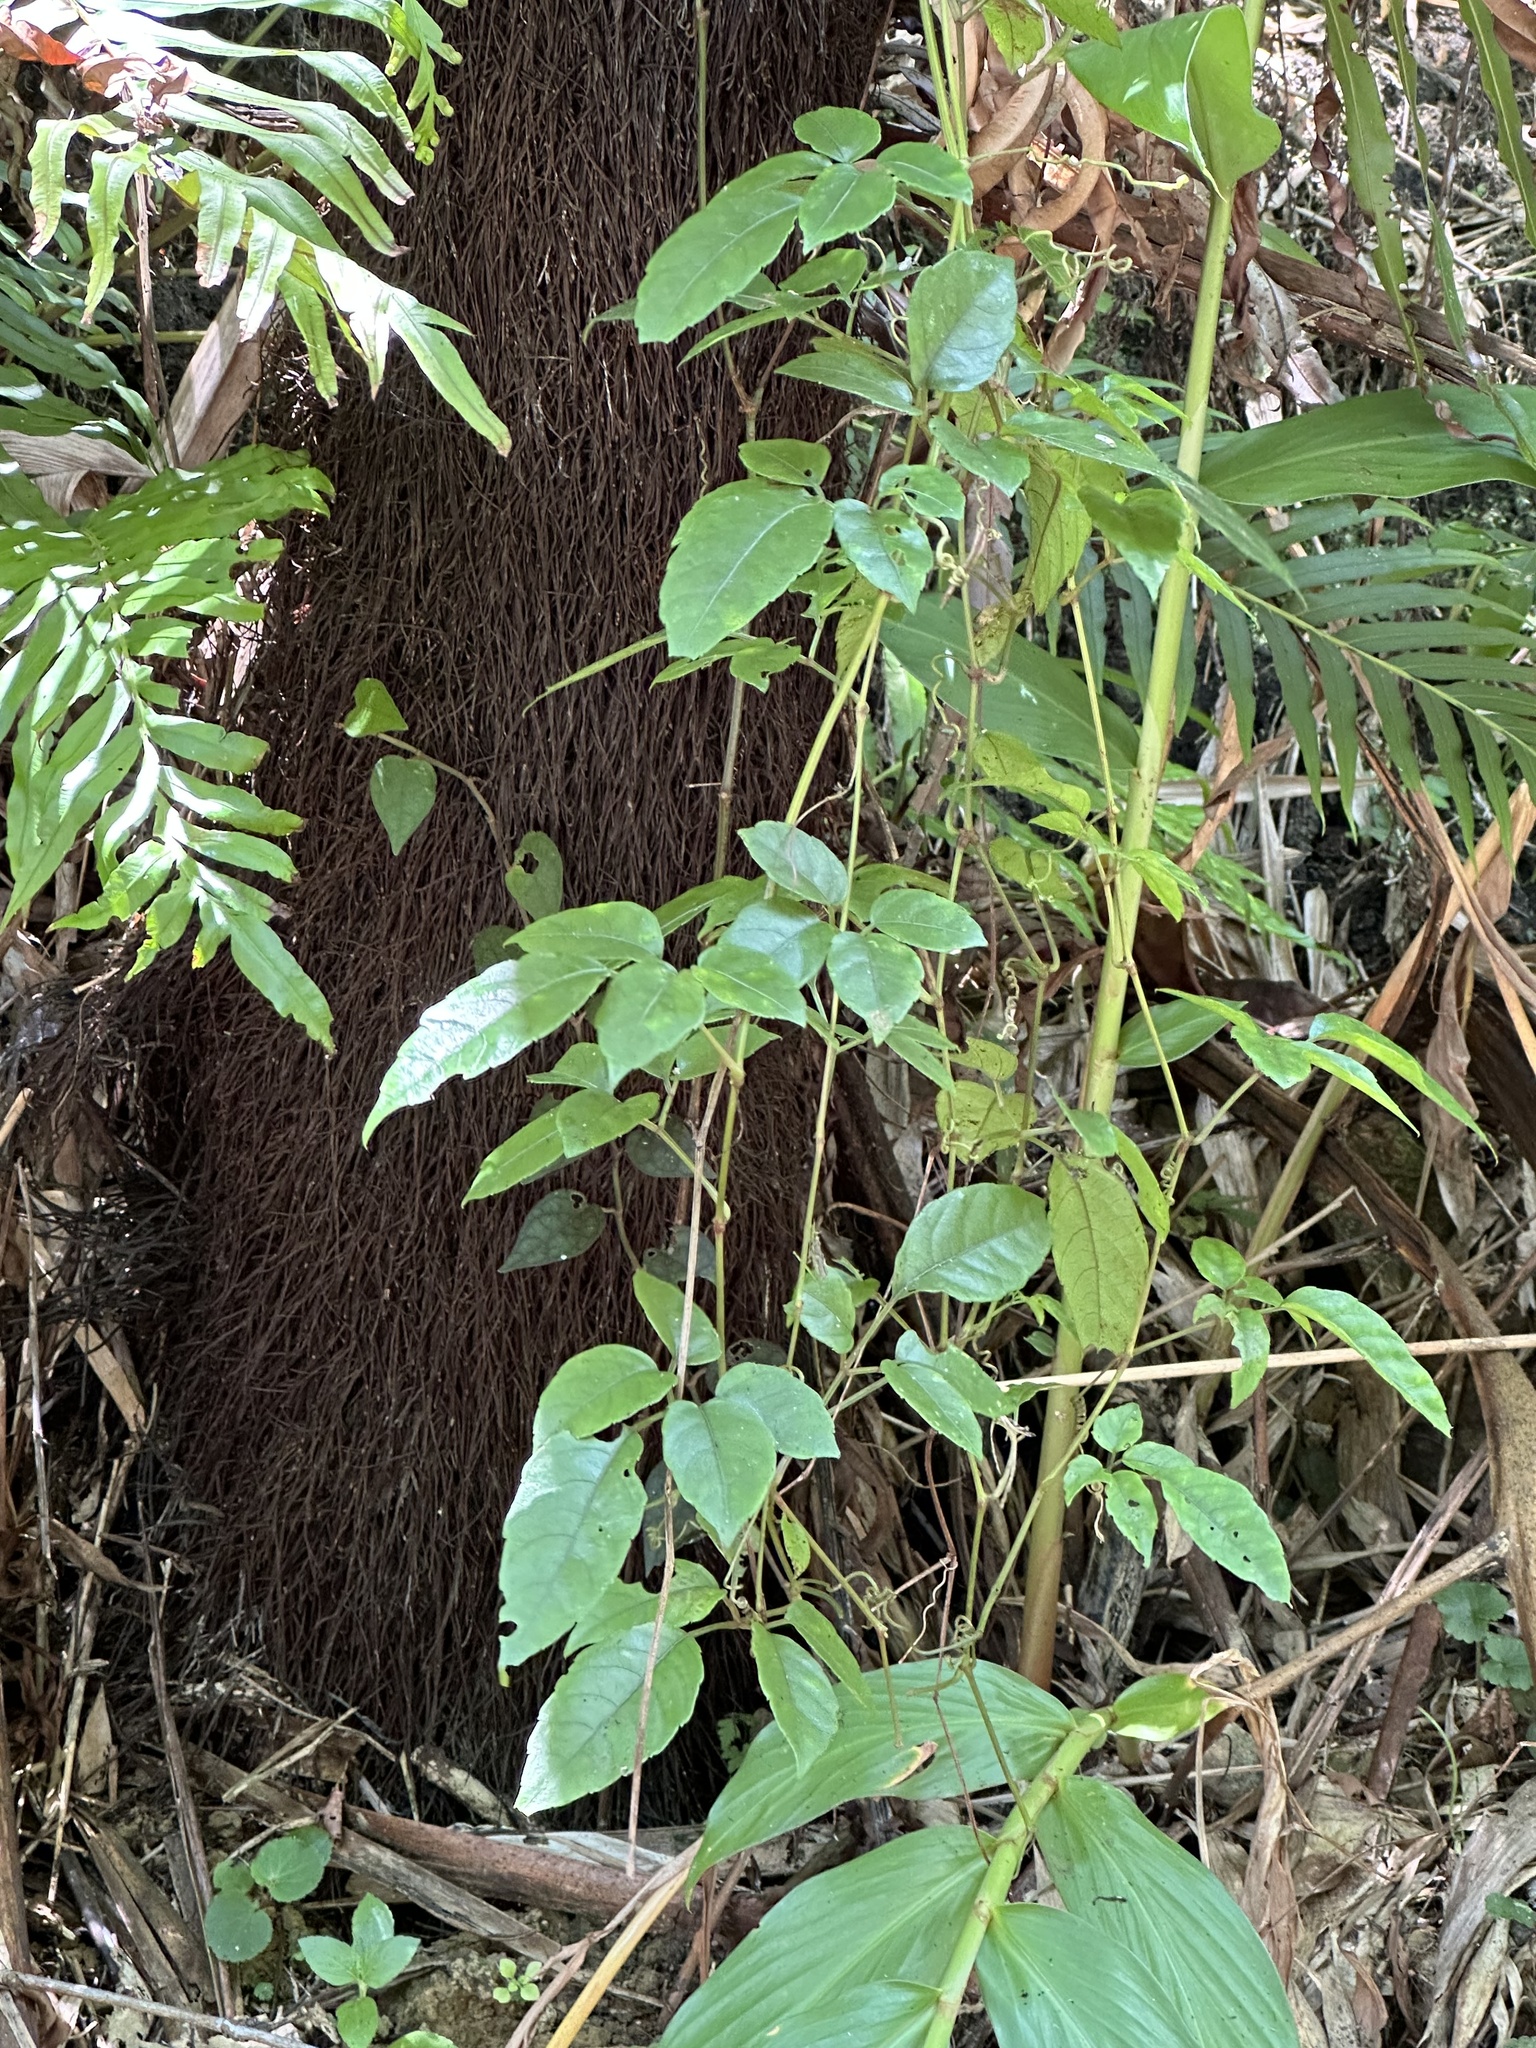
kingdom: Plantae
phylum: Tracheophyta
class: Magnoliopsida
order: Vitales
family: Vitaceae
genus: Causonis
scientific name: Causonis corniculata
